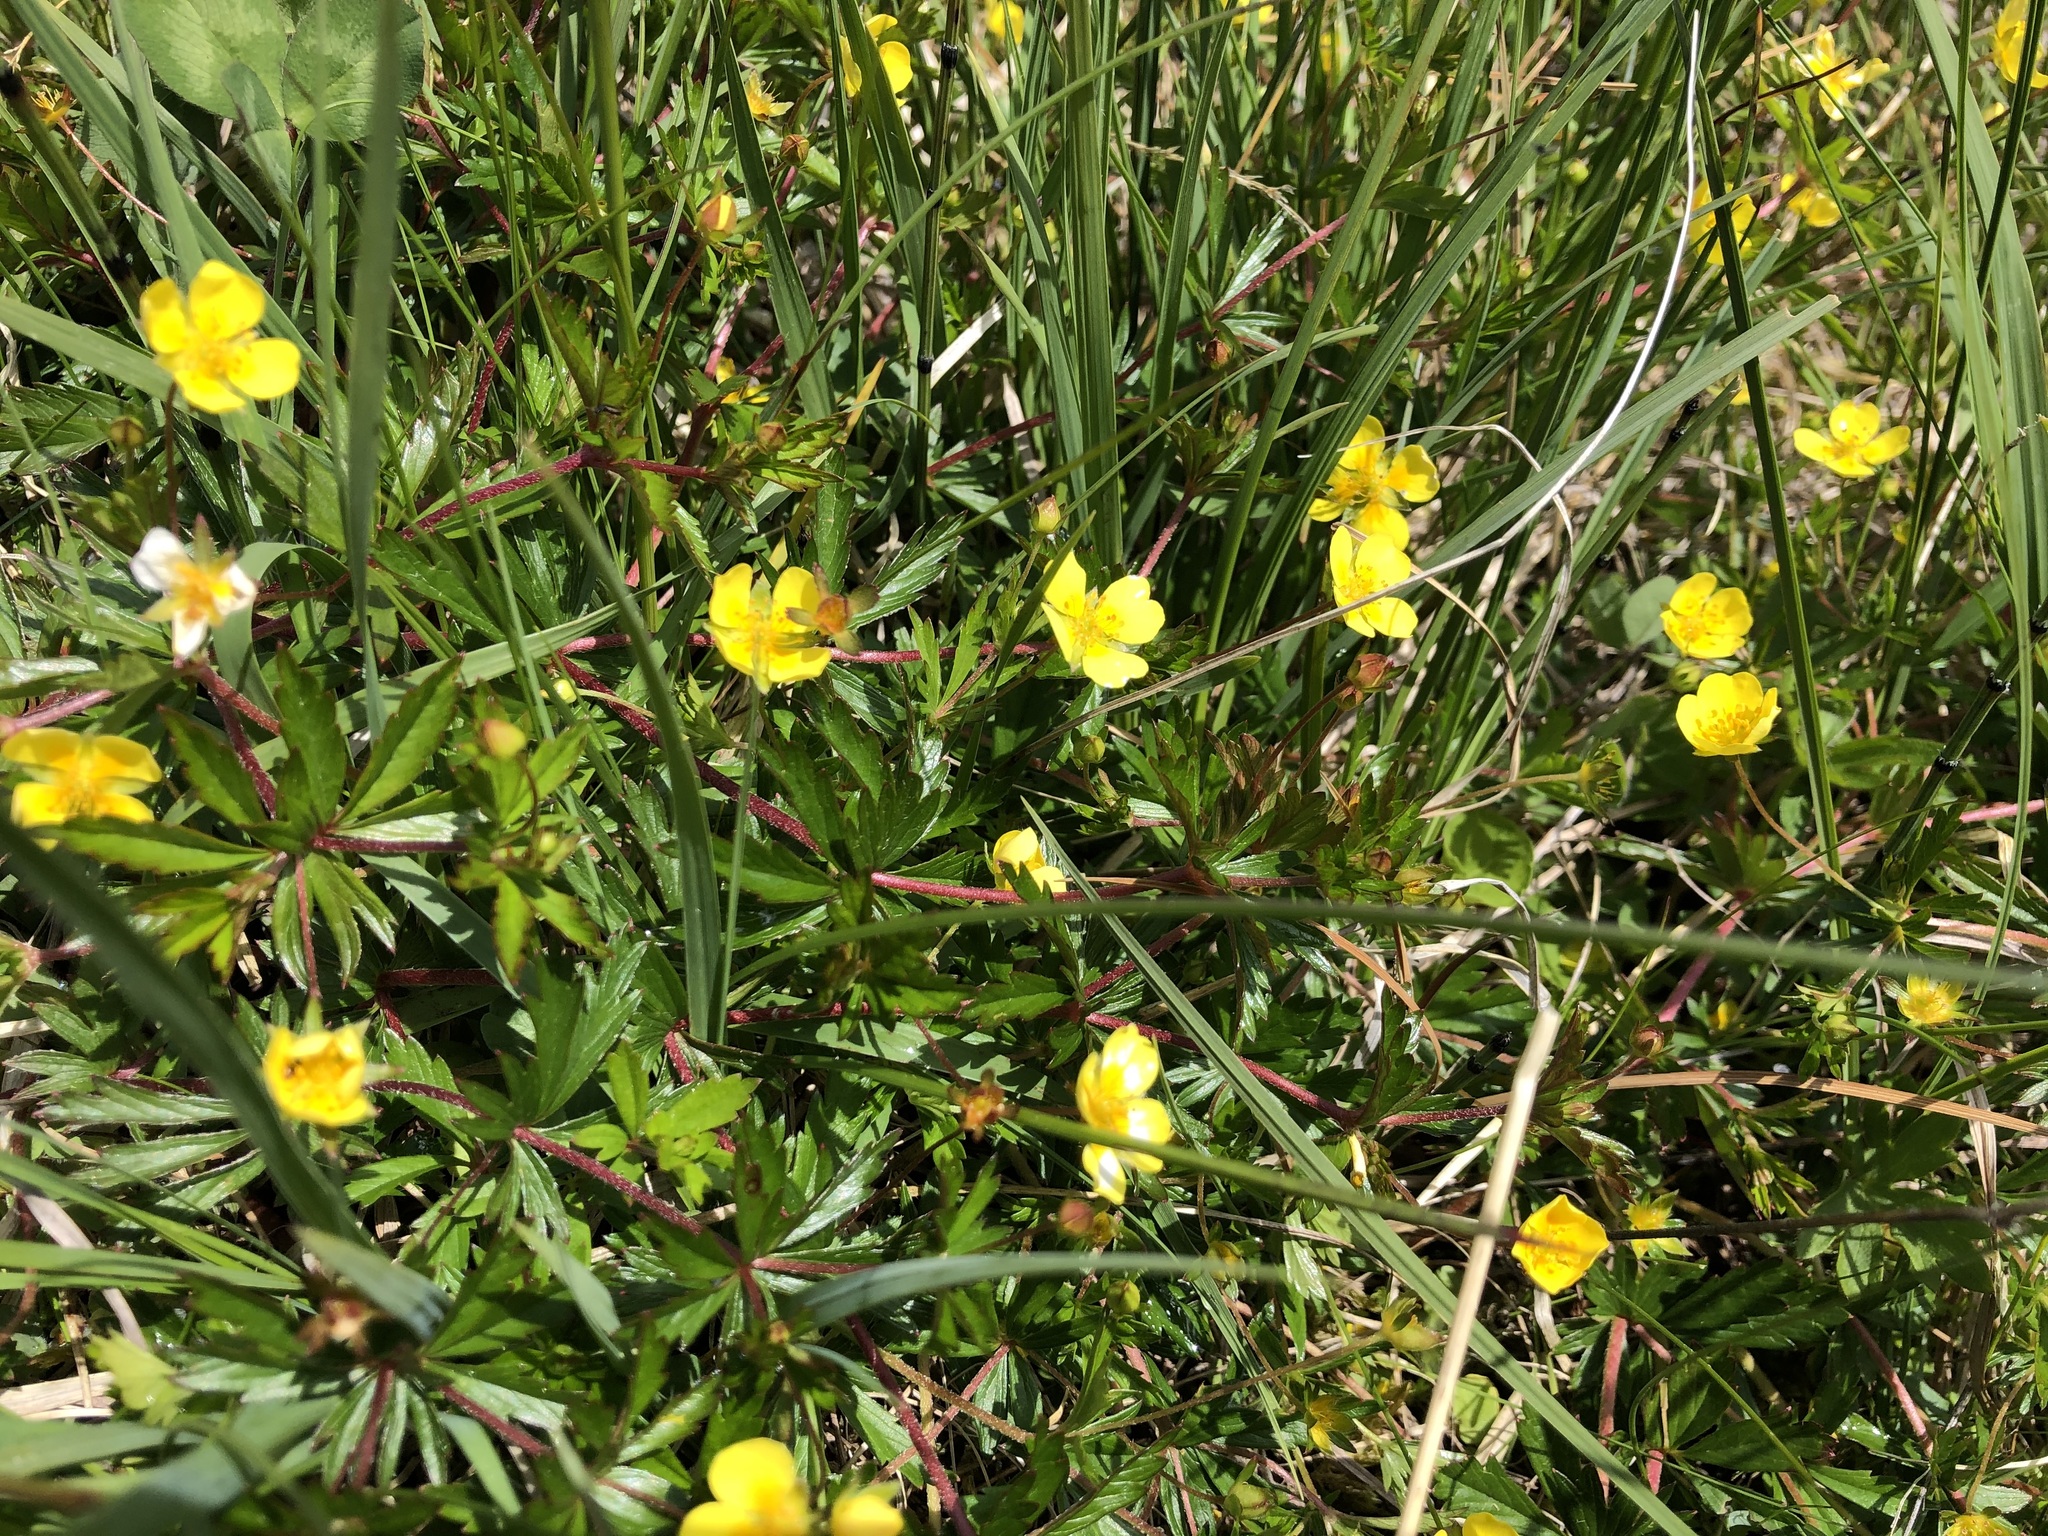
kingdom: Plantae
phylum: Tracheophyta
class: Magnoliopsida
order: Rosales
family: Rosaceae
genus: Potentilla
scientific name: Potentilla erecta
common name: Tormentil
